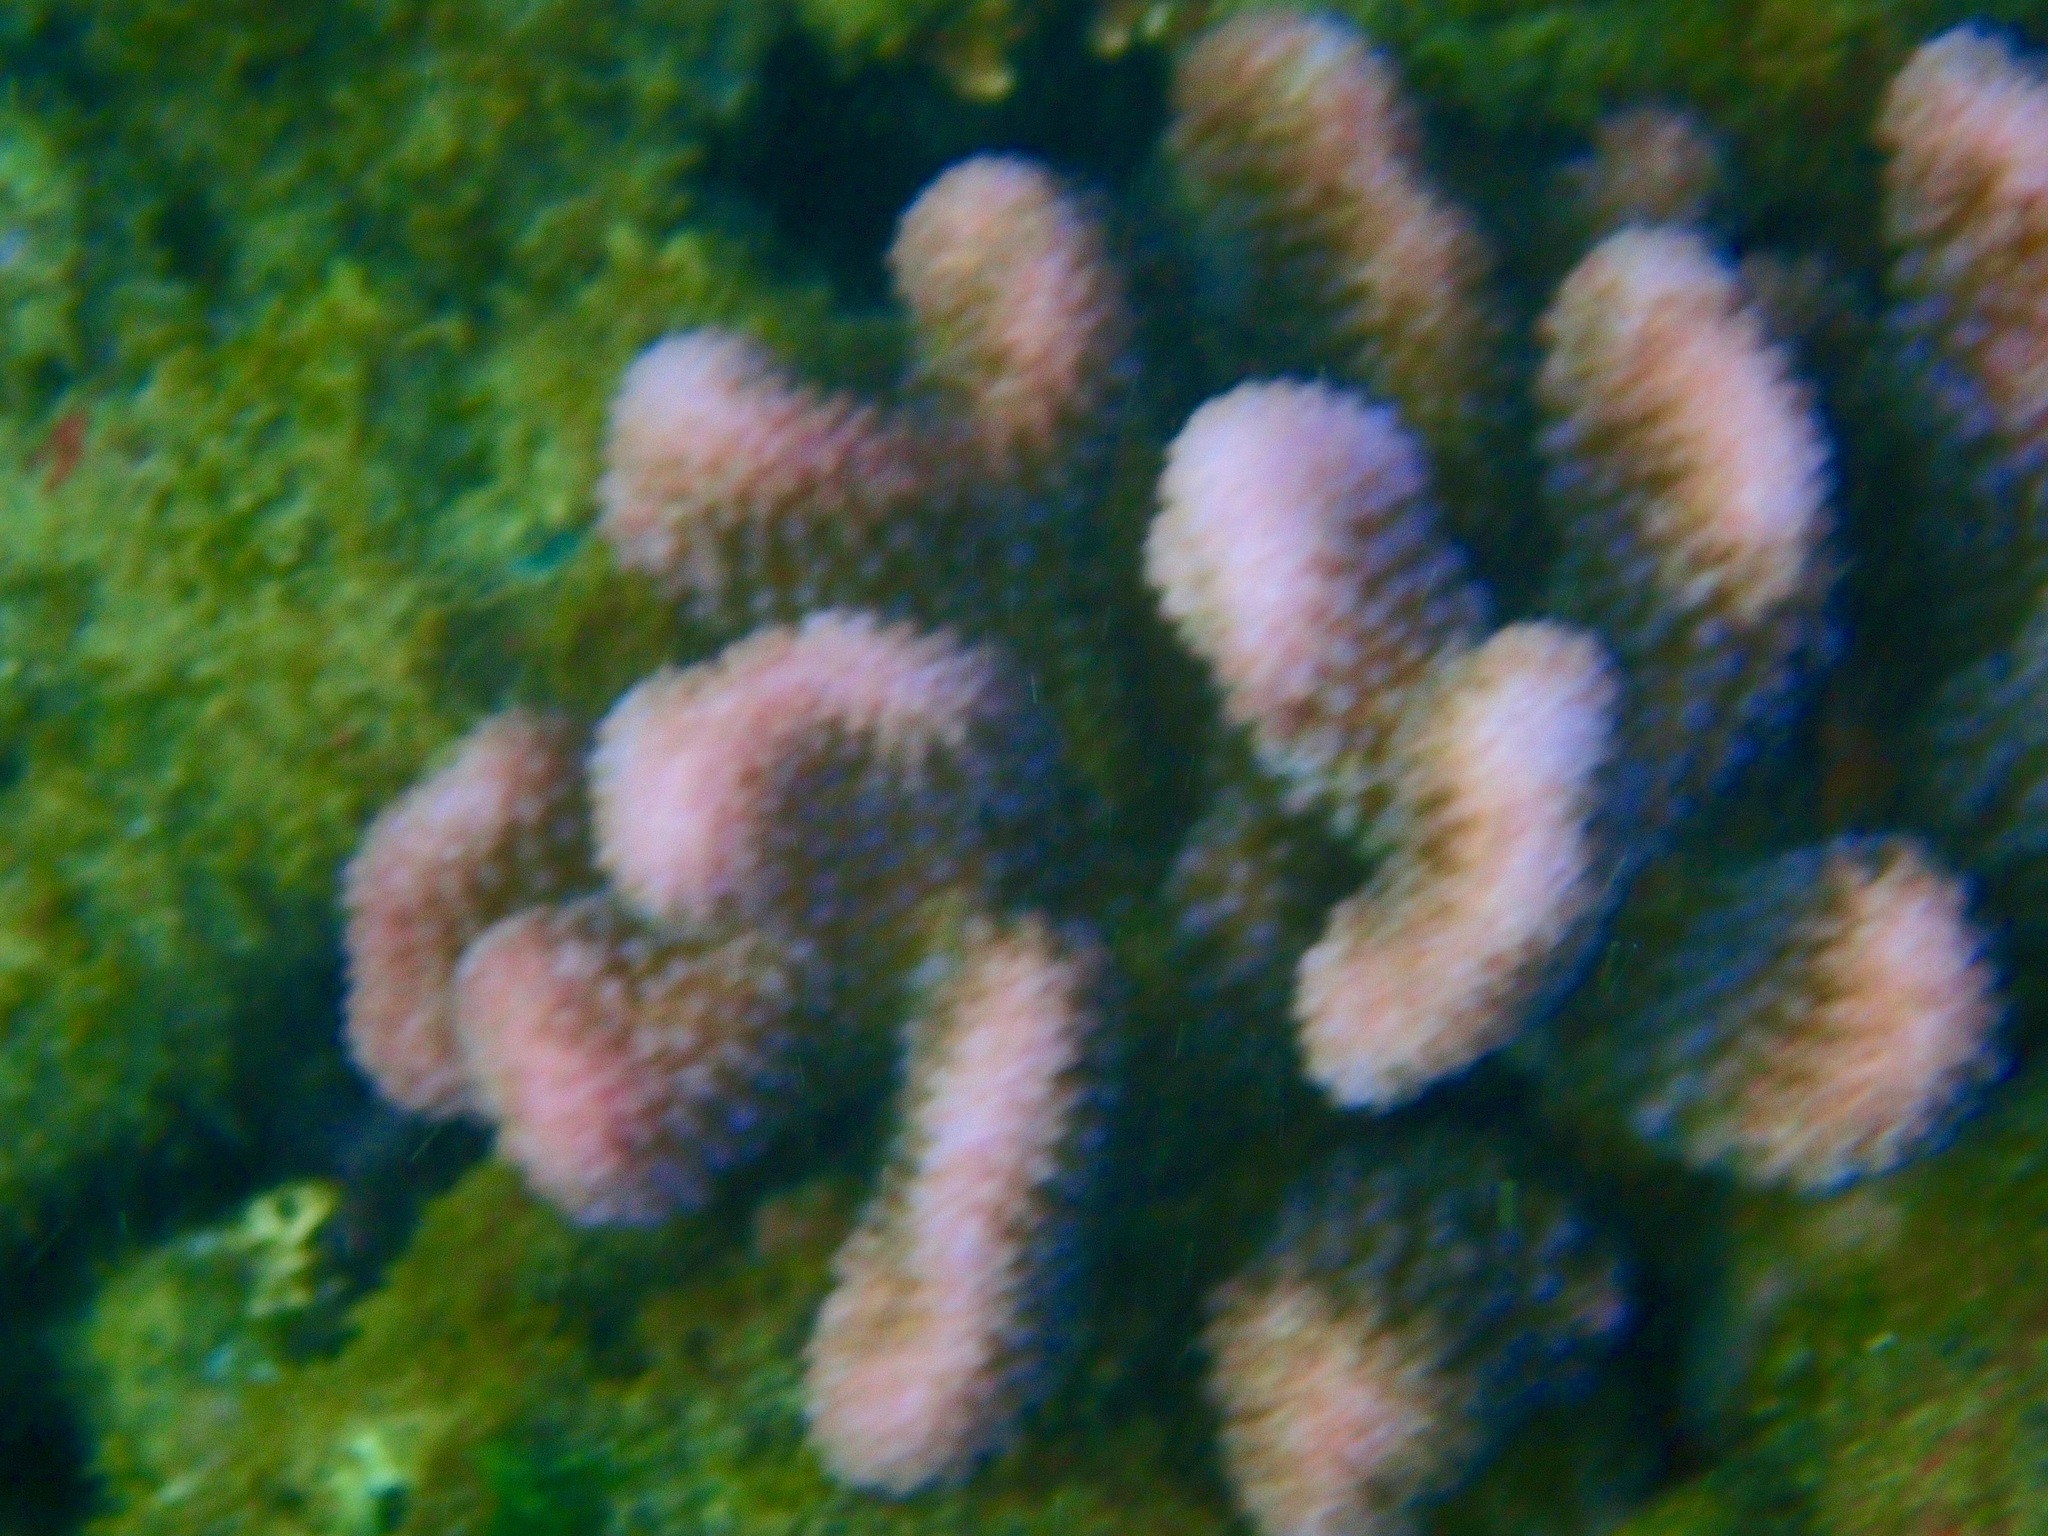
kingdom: Animalia
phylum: Cnidaria
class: Anthozoa
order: Scleractinia
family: Pocilloporidae
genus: Pocillopora
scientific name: Pocillopora meandrina
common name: Cauliflower coral
